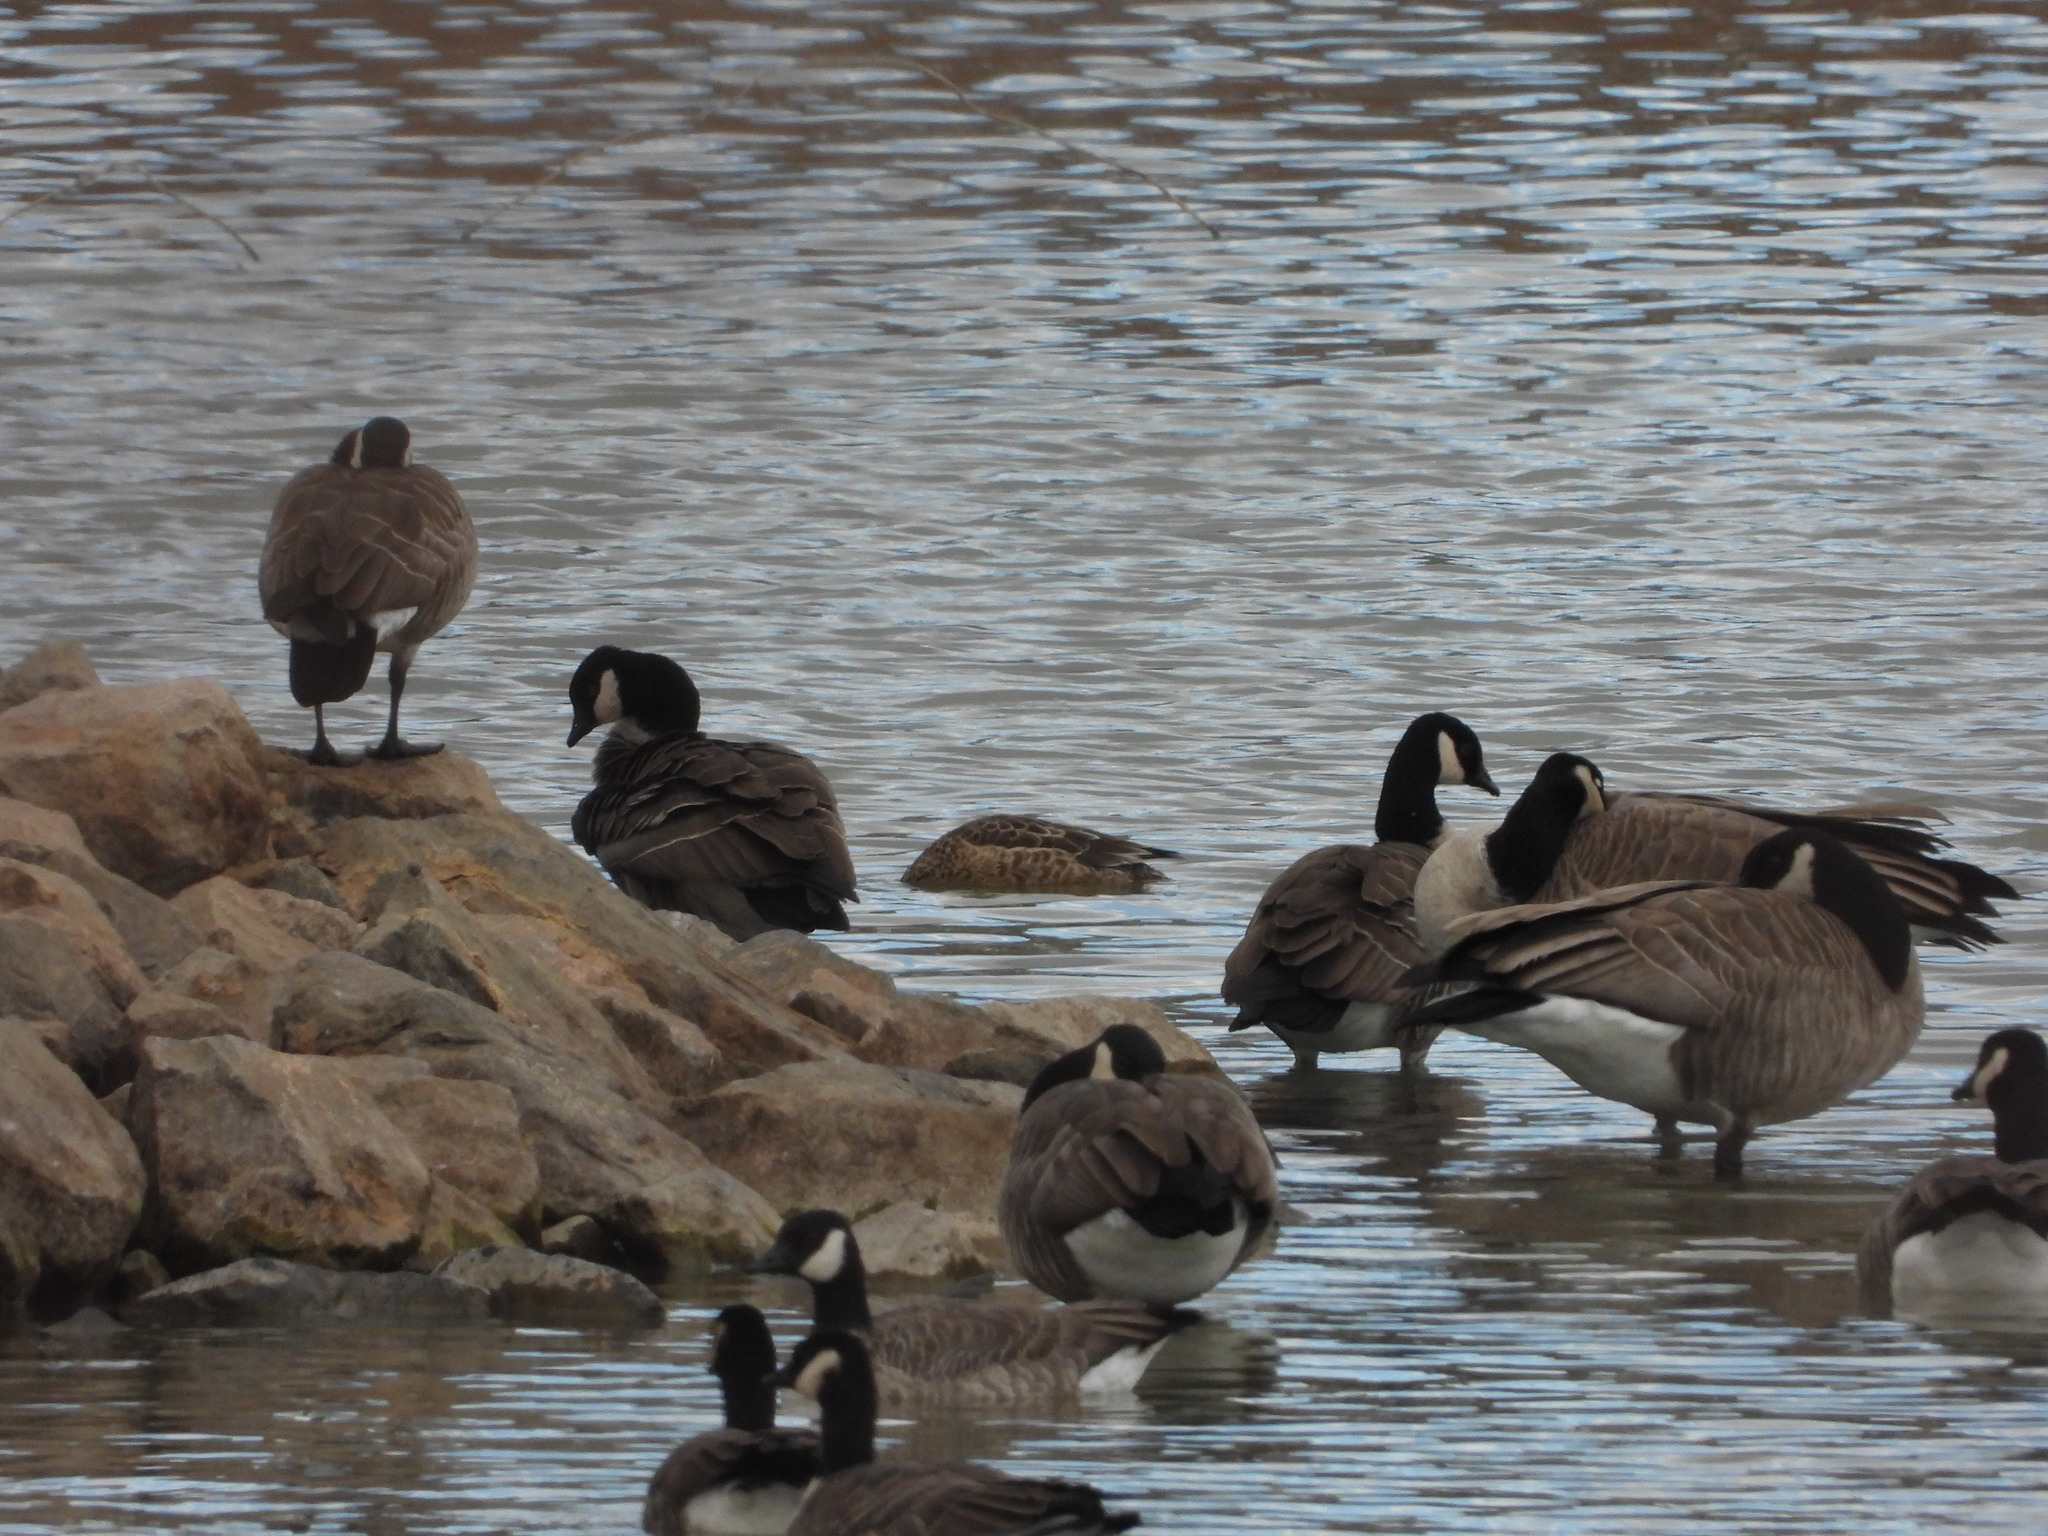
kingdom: Animalia
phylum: Chordata
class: Aves
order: Anseriformes
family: Anatidae
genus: Branta
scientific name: Branta hutchinsii
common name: Cackling goose
